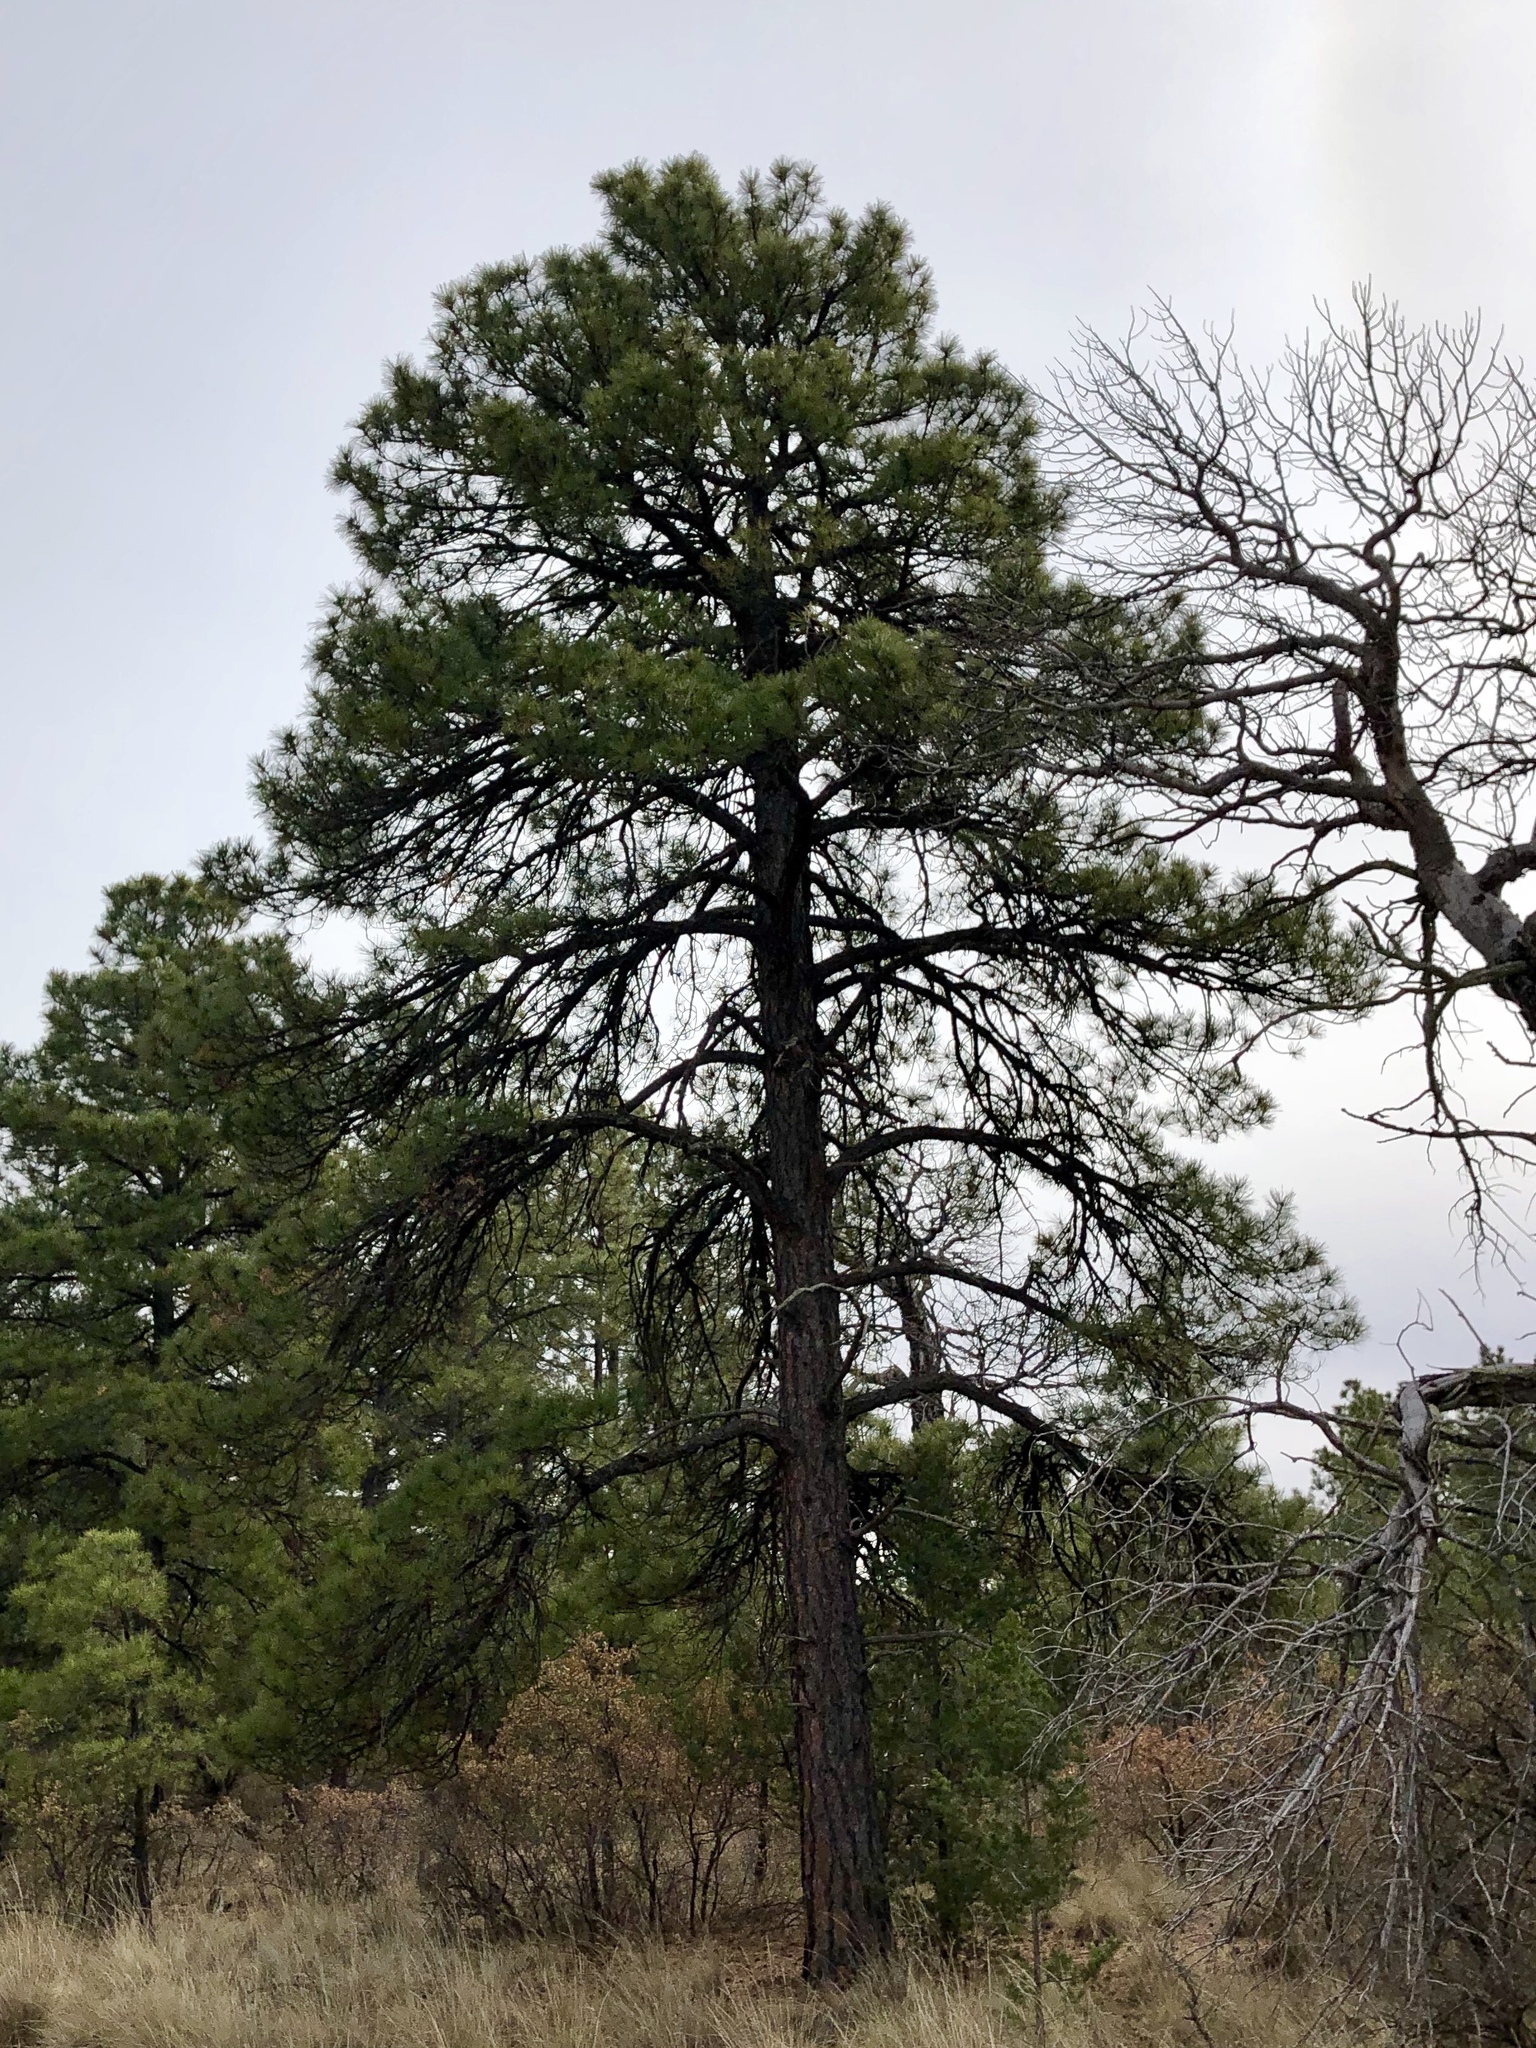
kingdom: Plantae
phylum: Tracheophyta
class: Pinopsida
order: Pinales
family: Pinaceae
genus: Pinus
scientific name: Pinus ponderosa
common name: Western yellow-pine
